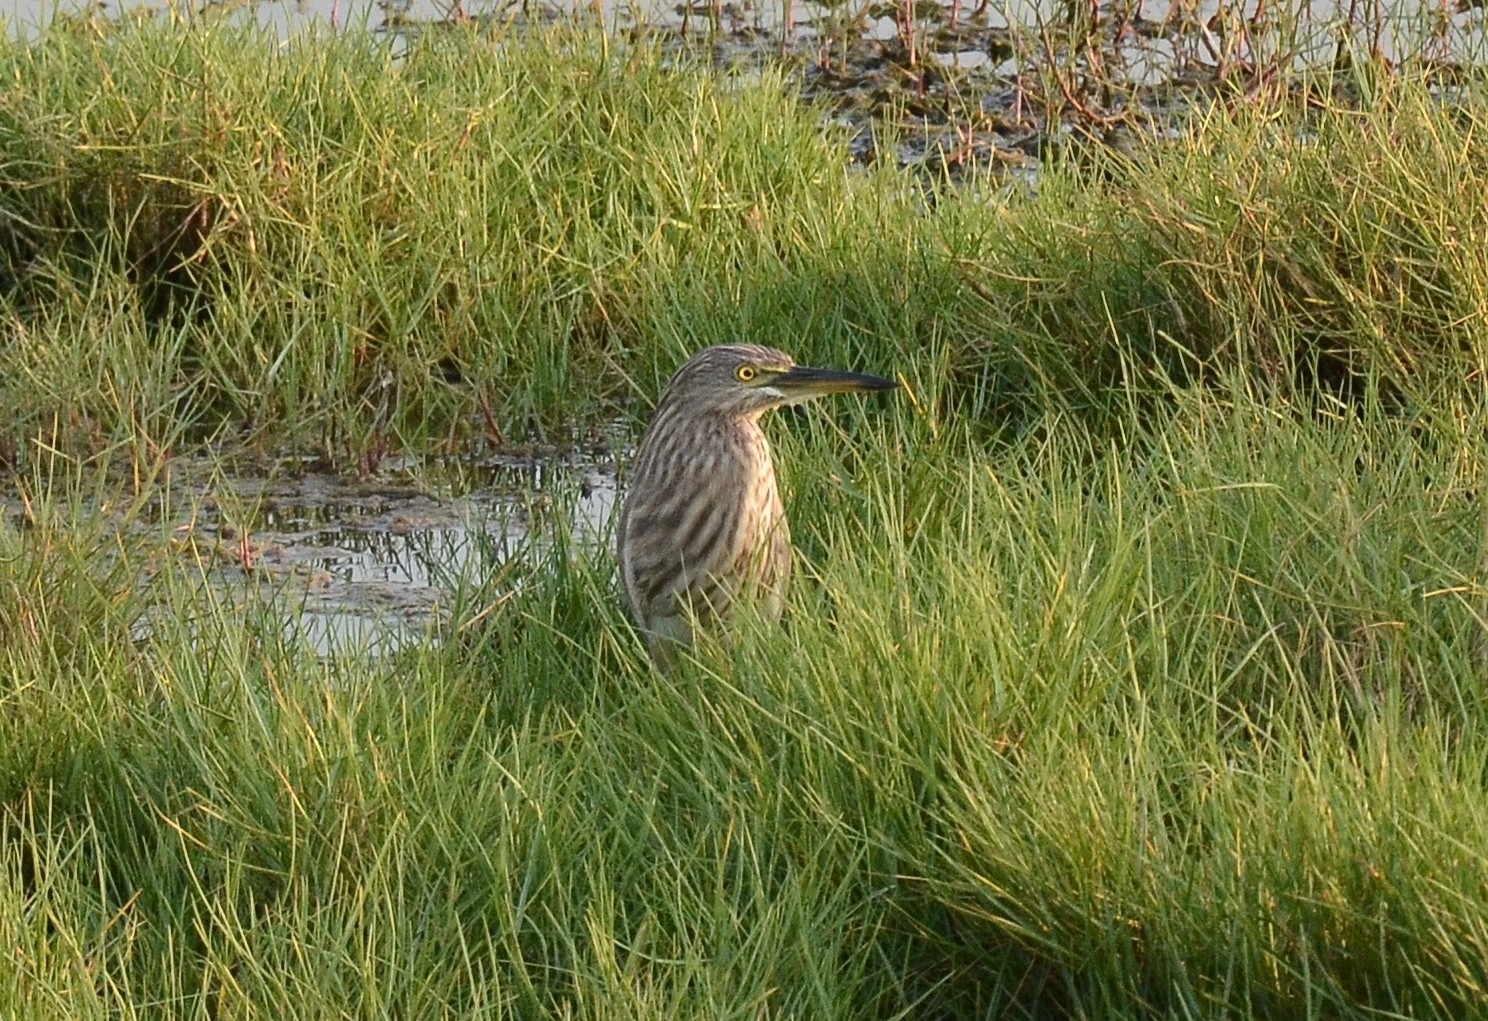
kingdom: Animalia
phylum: Chordata
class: Aves
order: Pelecaniformes
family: Ardeidae
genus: Ardeola
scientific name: Ardeola grayii
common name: Indian pond heron
